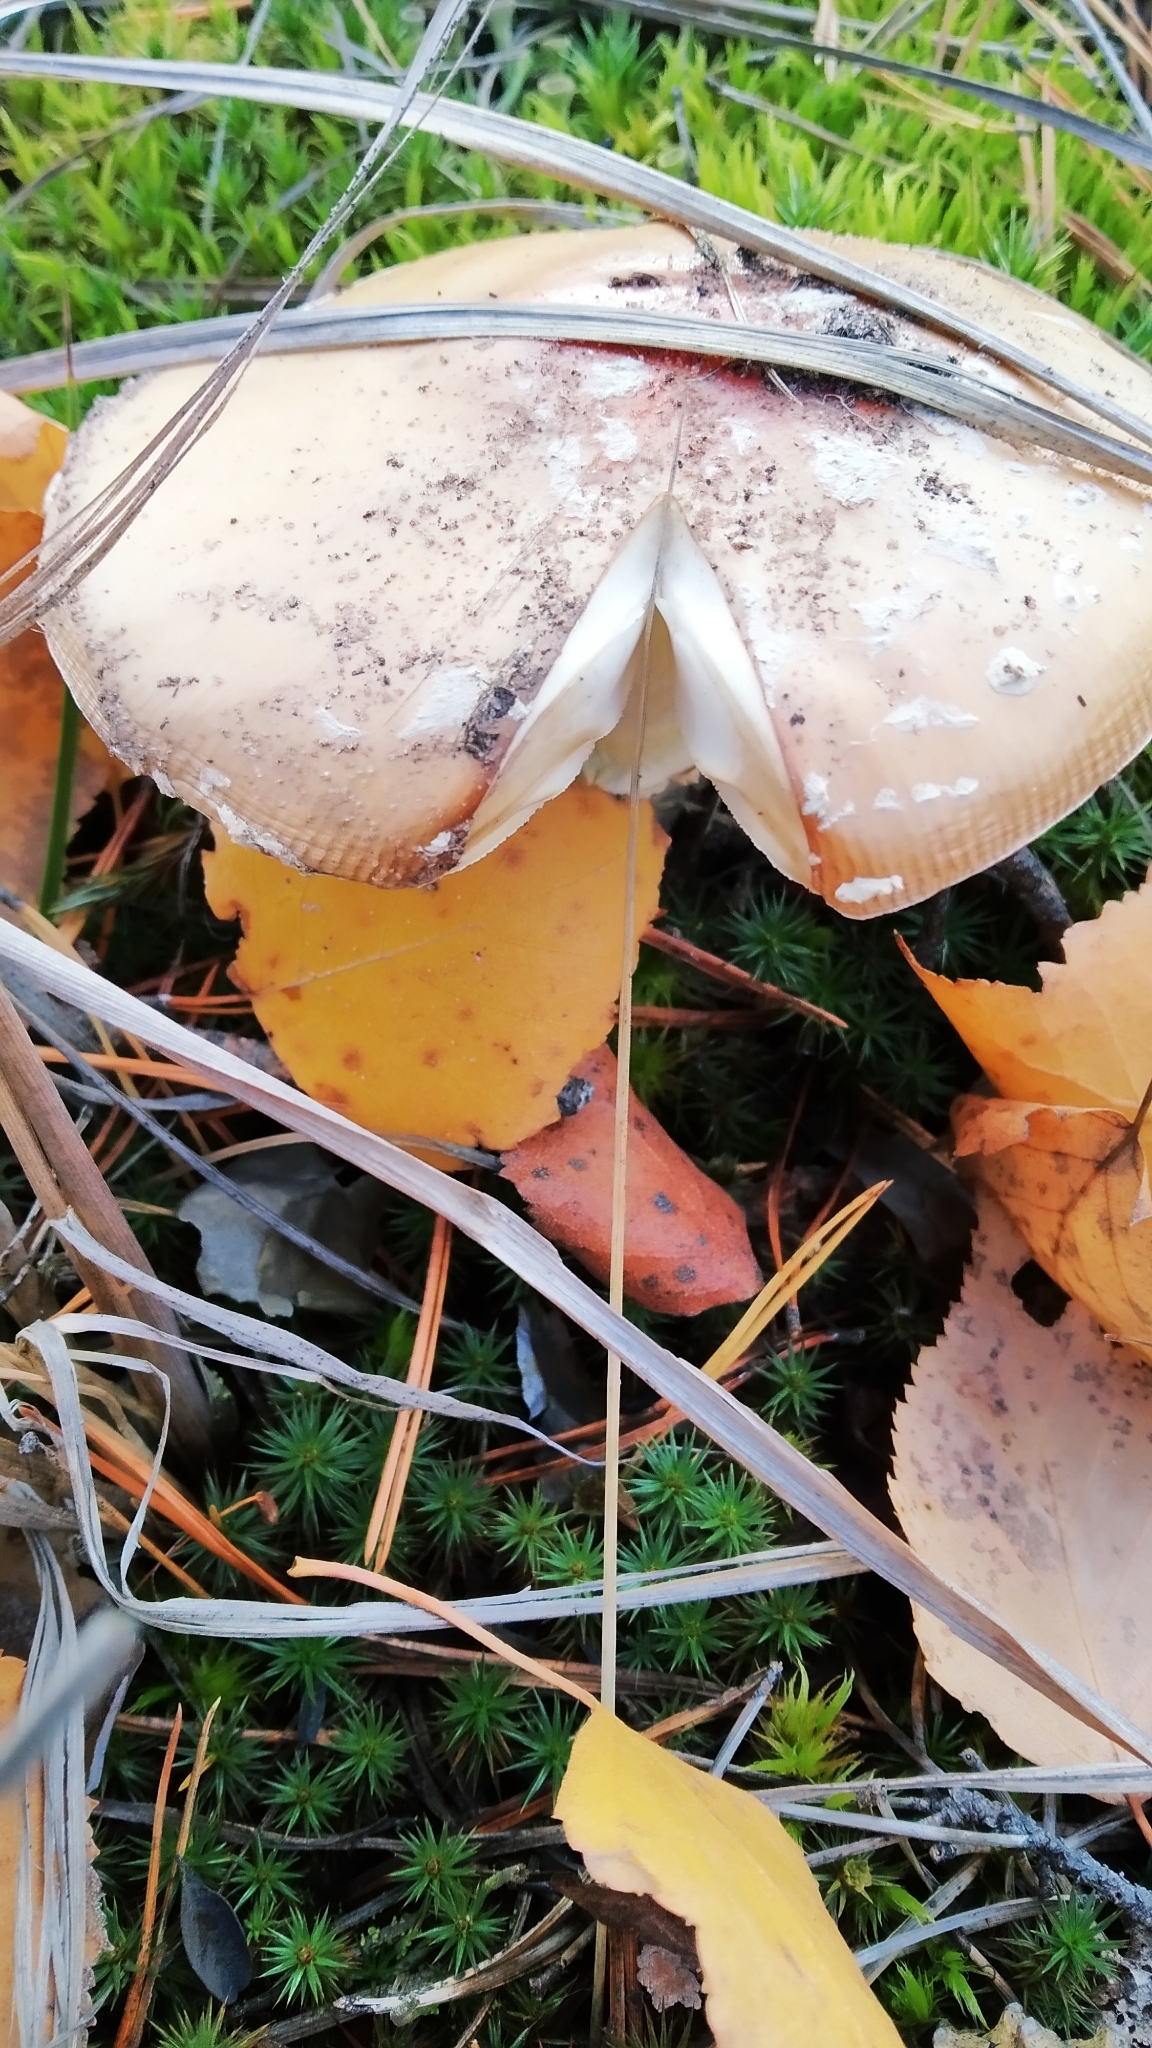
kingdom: Fungi
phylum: Basidiomycota
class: Agaricomycetes
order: Agaricales
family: Amanitaceae
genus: Amanita
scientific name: Amanita muscaria
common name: Fly agaric
